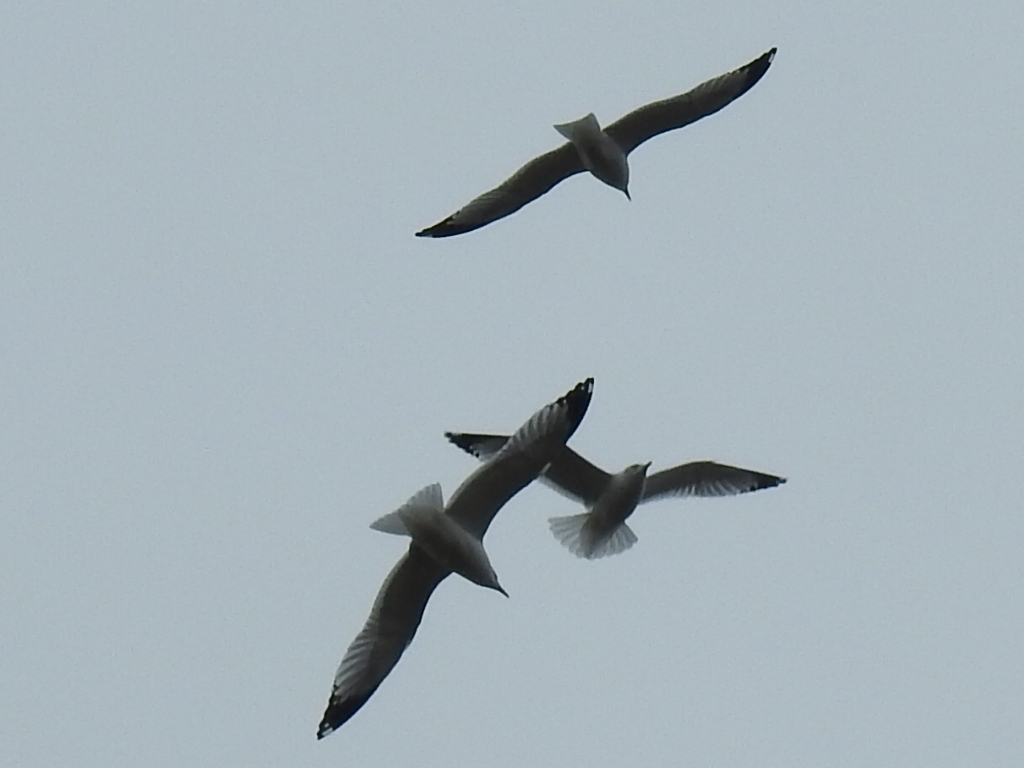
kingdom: Animalia
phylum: Chordata
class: Aves
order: Charadriiformes
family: Laridae
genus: Larus
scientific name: Larus delawarensis
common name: Ring-billed gull
